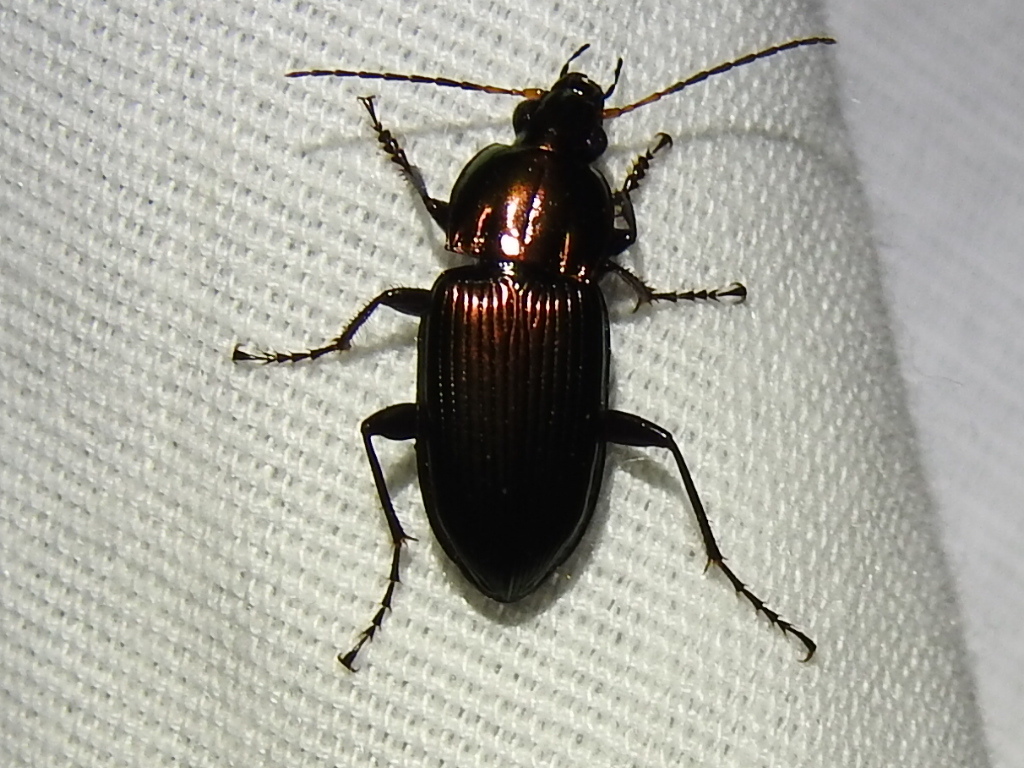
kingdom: Animalia
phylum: Arthropoda
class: Insecta
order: Coleoptera
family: Carabidae
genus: Poecilus
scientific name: Poecilus chalcites
